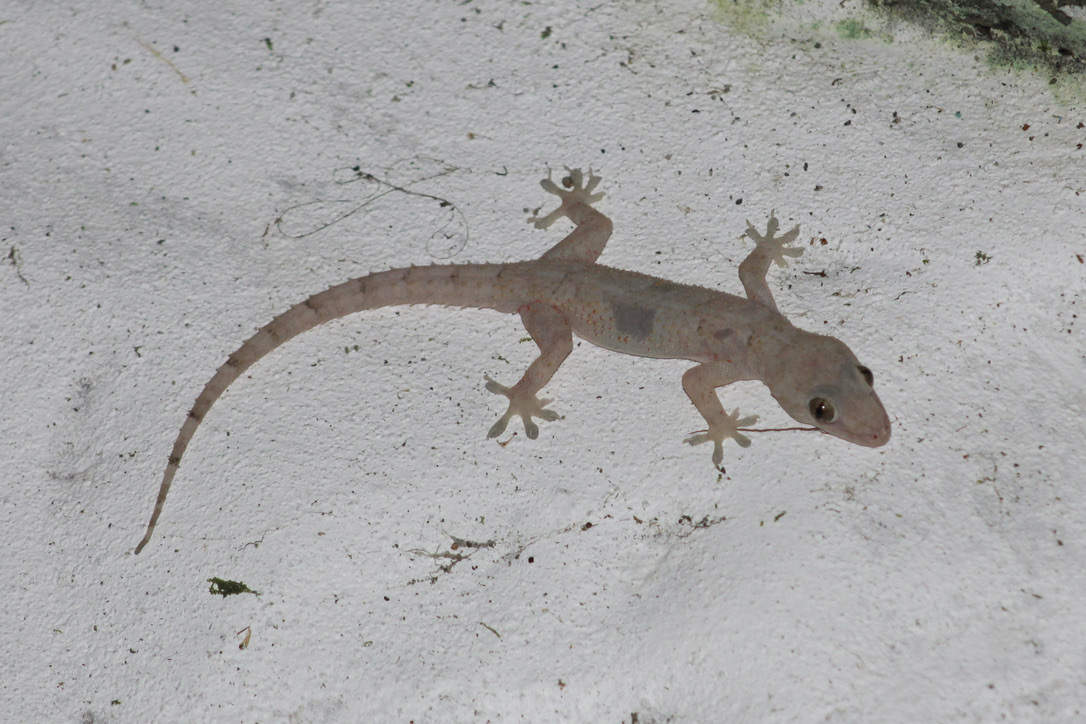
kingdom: Animalia
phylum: Chordata
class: Squamata
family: Gekkonidae
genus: Hemidactylus
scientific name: Hemidactylus mabouia
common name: House gecko
